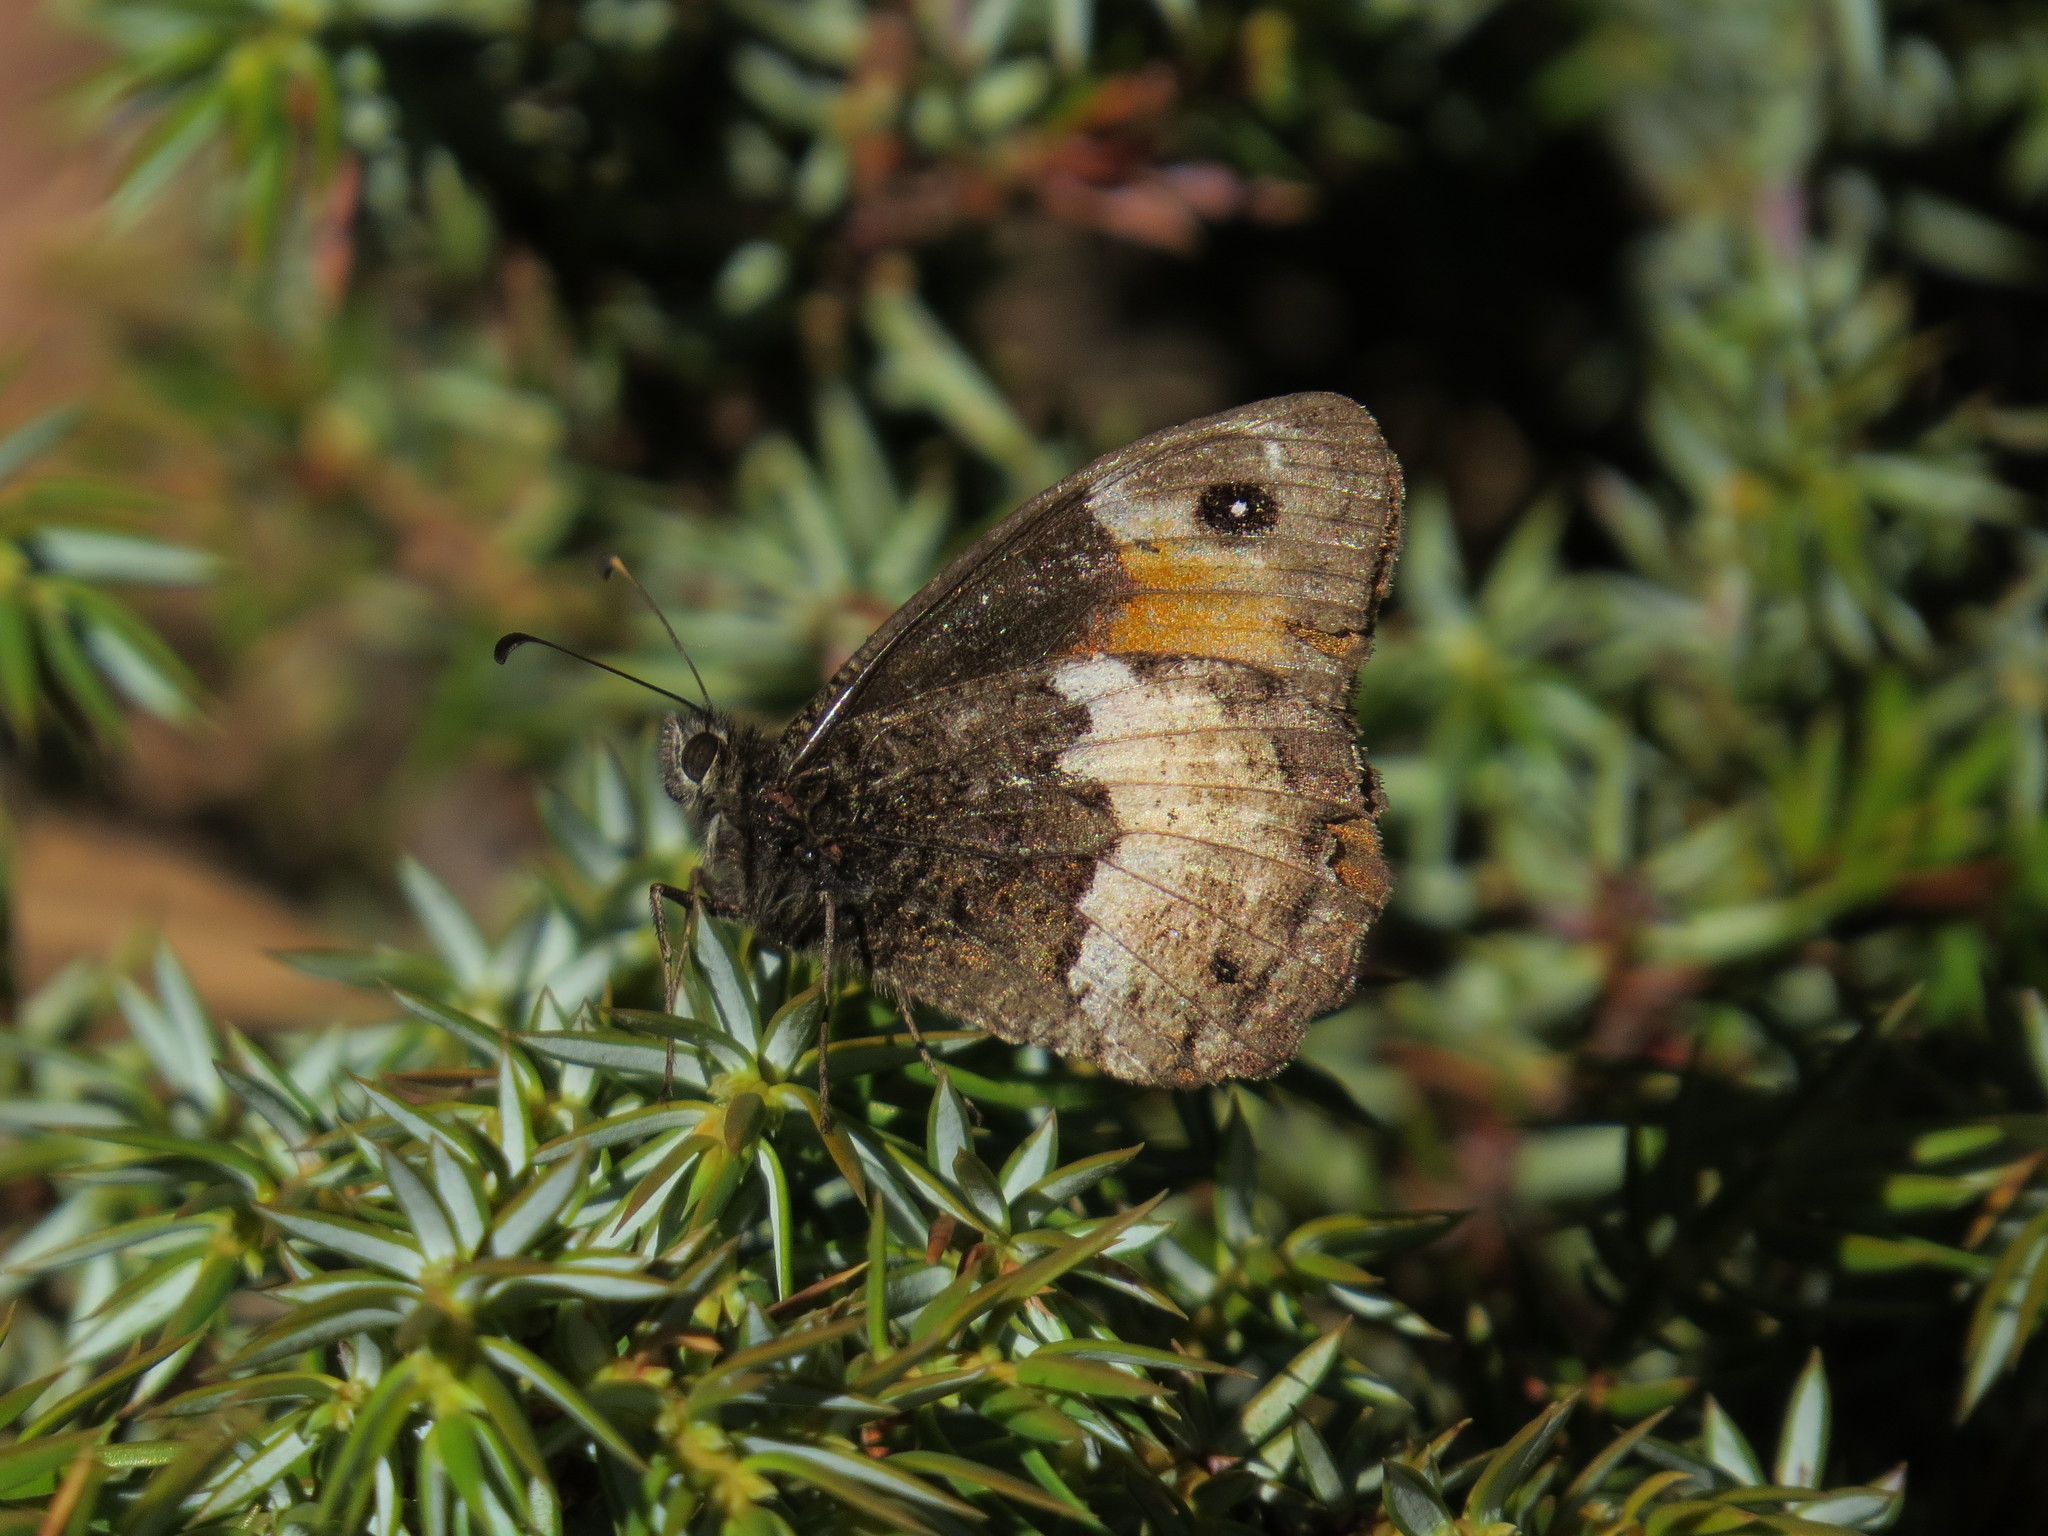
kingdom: Animalia
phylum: Arthropoda
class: Insecta
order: Lepidoptera
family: Nymphalidae
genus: Hipparchia
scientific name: Hipparchia neomiris
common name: Corsican grayling
